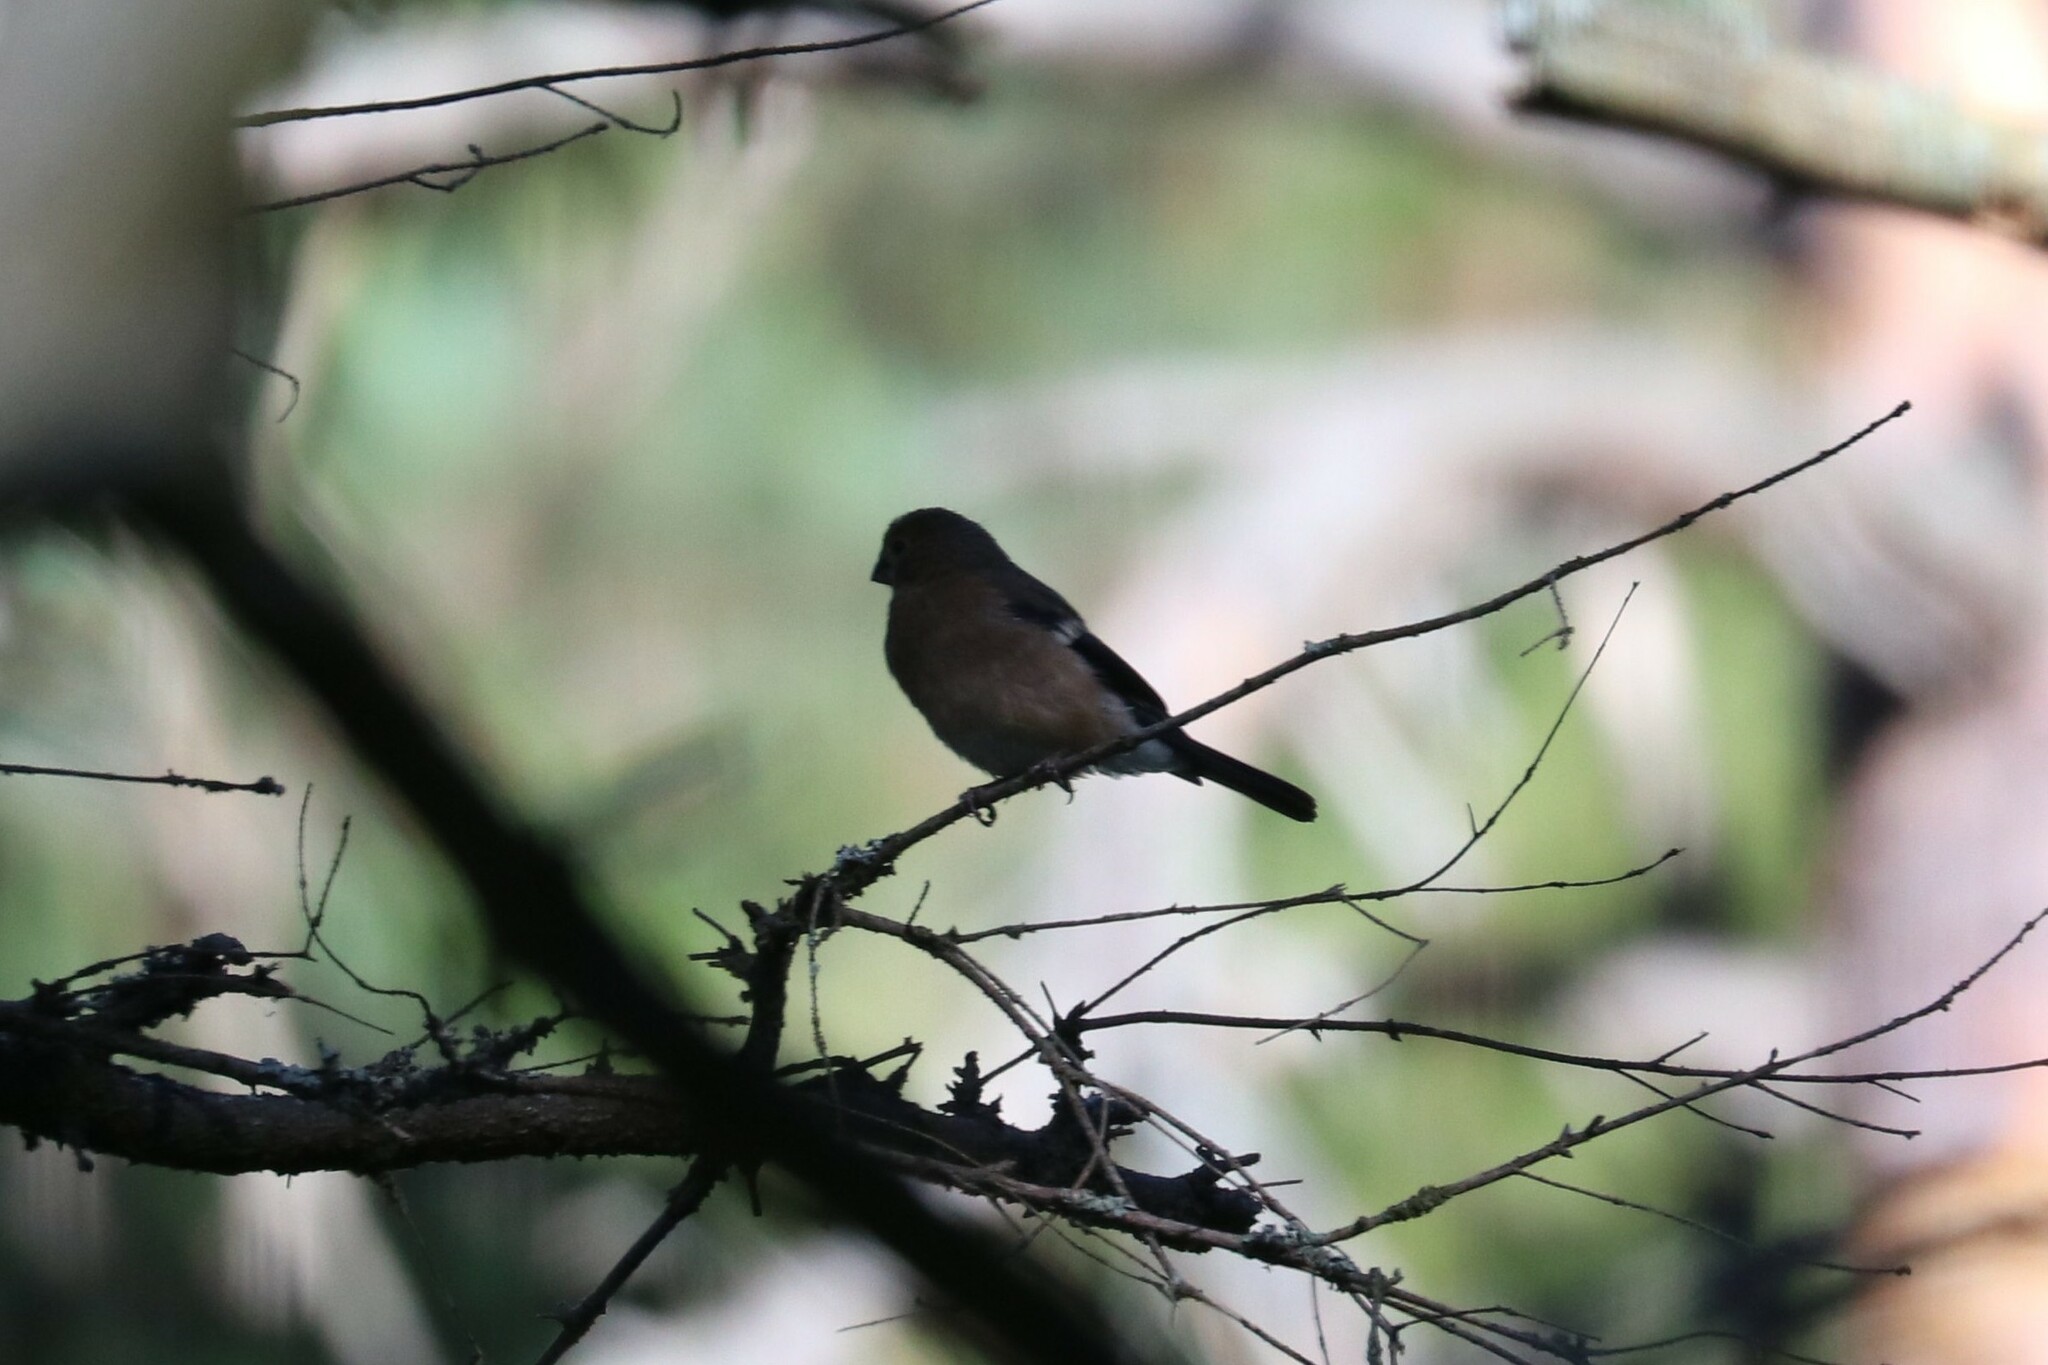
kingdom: Animalia
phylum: Chordata
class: Aves
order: Passeriformes
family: Fringillidae
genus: Pyrrhula
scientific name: Pyrrhula pyrrhula
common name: Eurasian bullfinch
